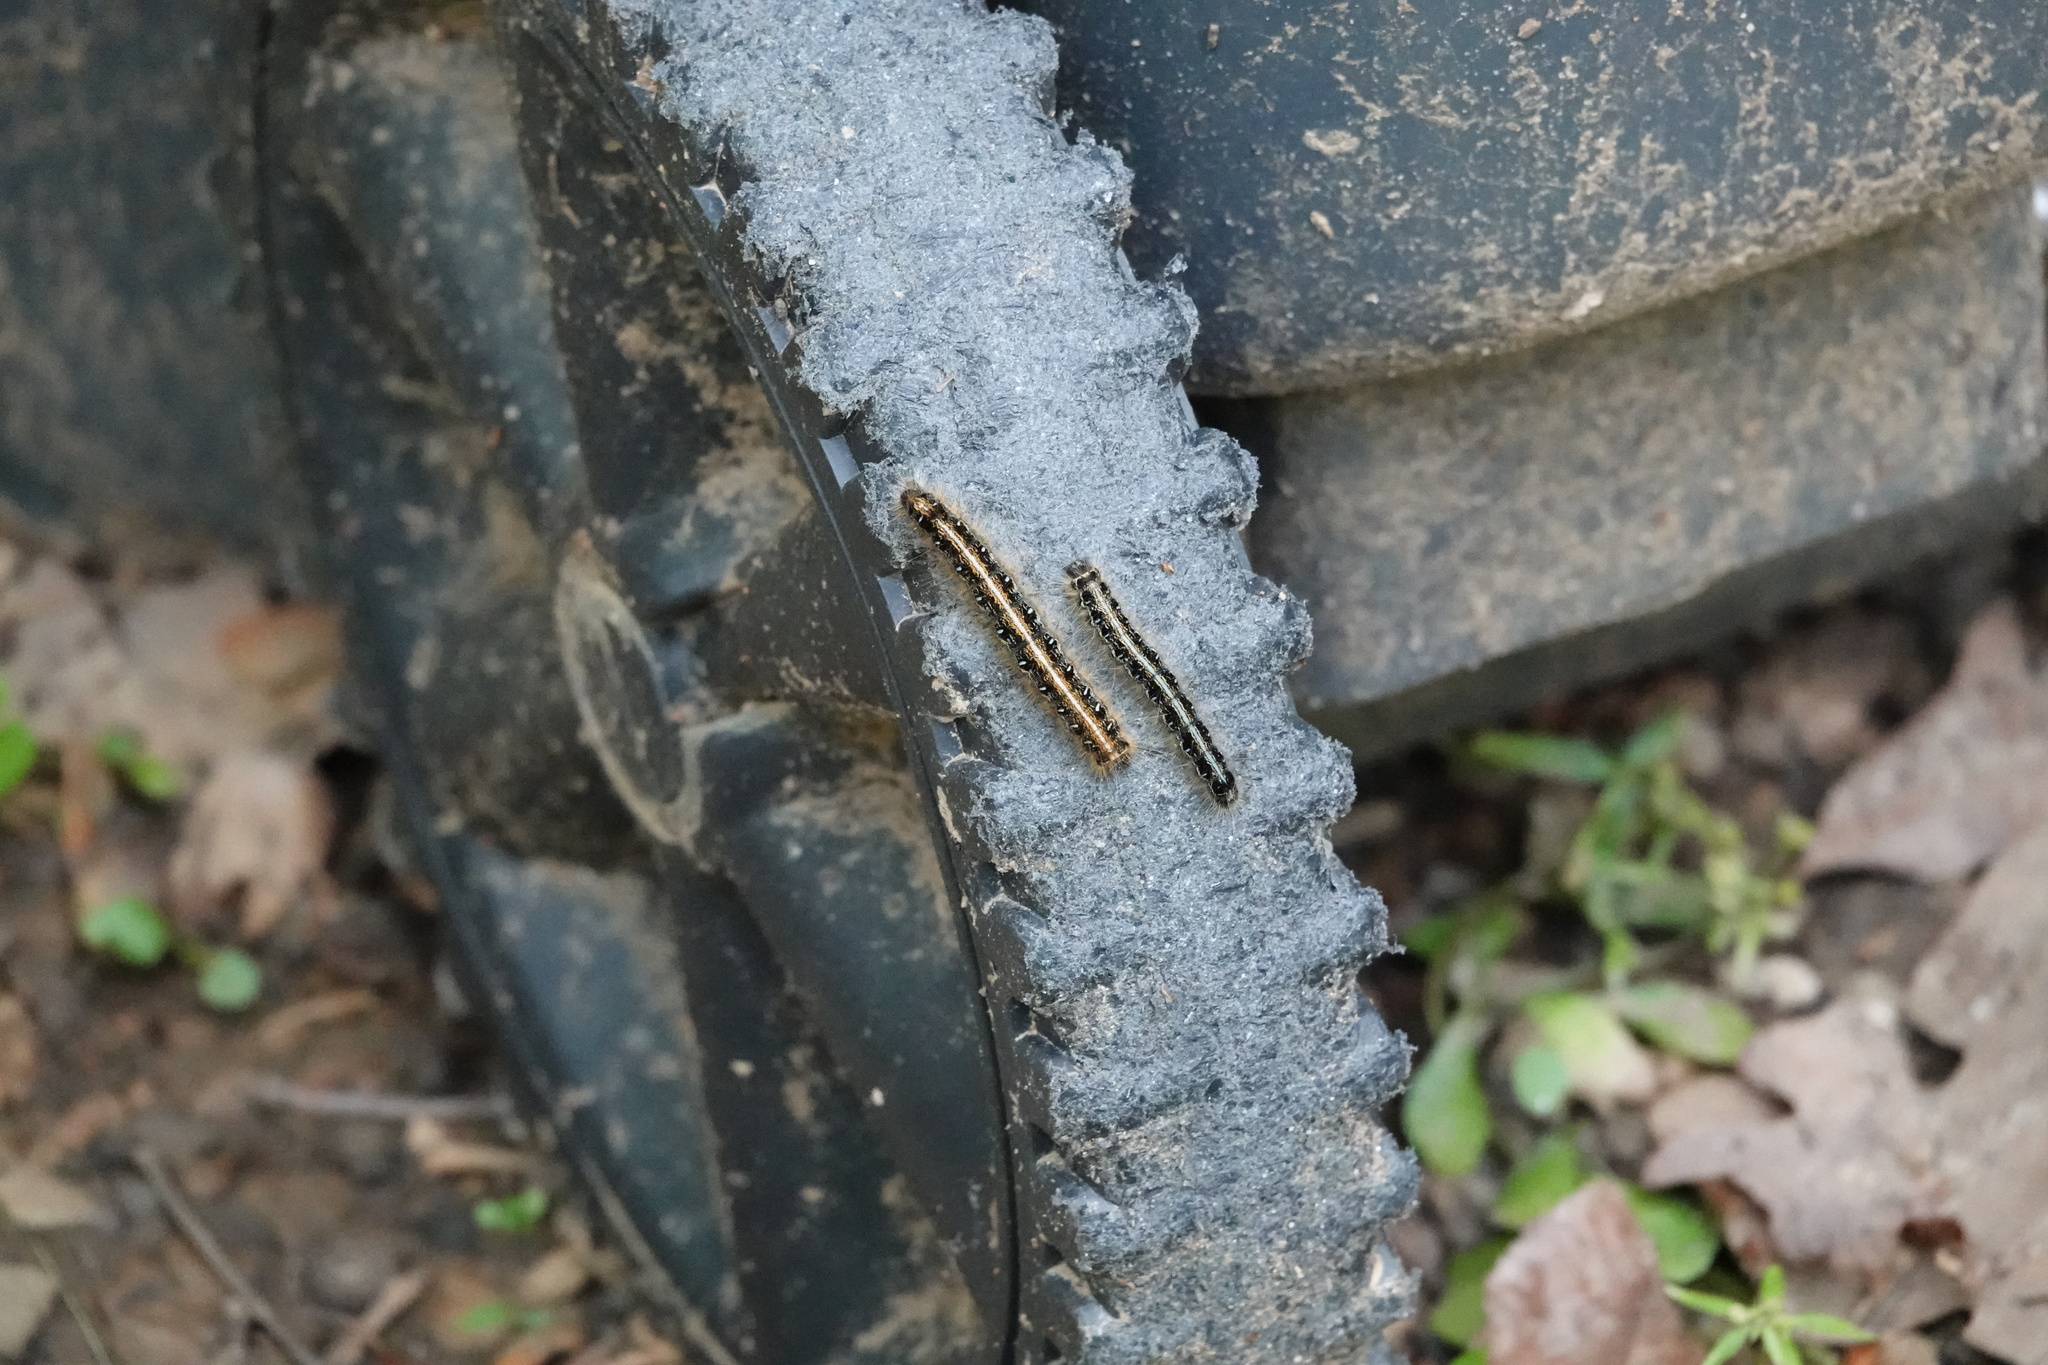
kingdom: Animalia
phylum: Arthropoda
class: Insecta
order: Lepidoptera
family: Lasiocampidae
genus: Malacosoma
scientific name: Malacosoma americana
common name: Eastern tent caterpillar moth
